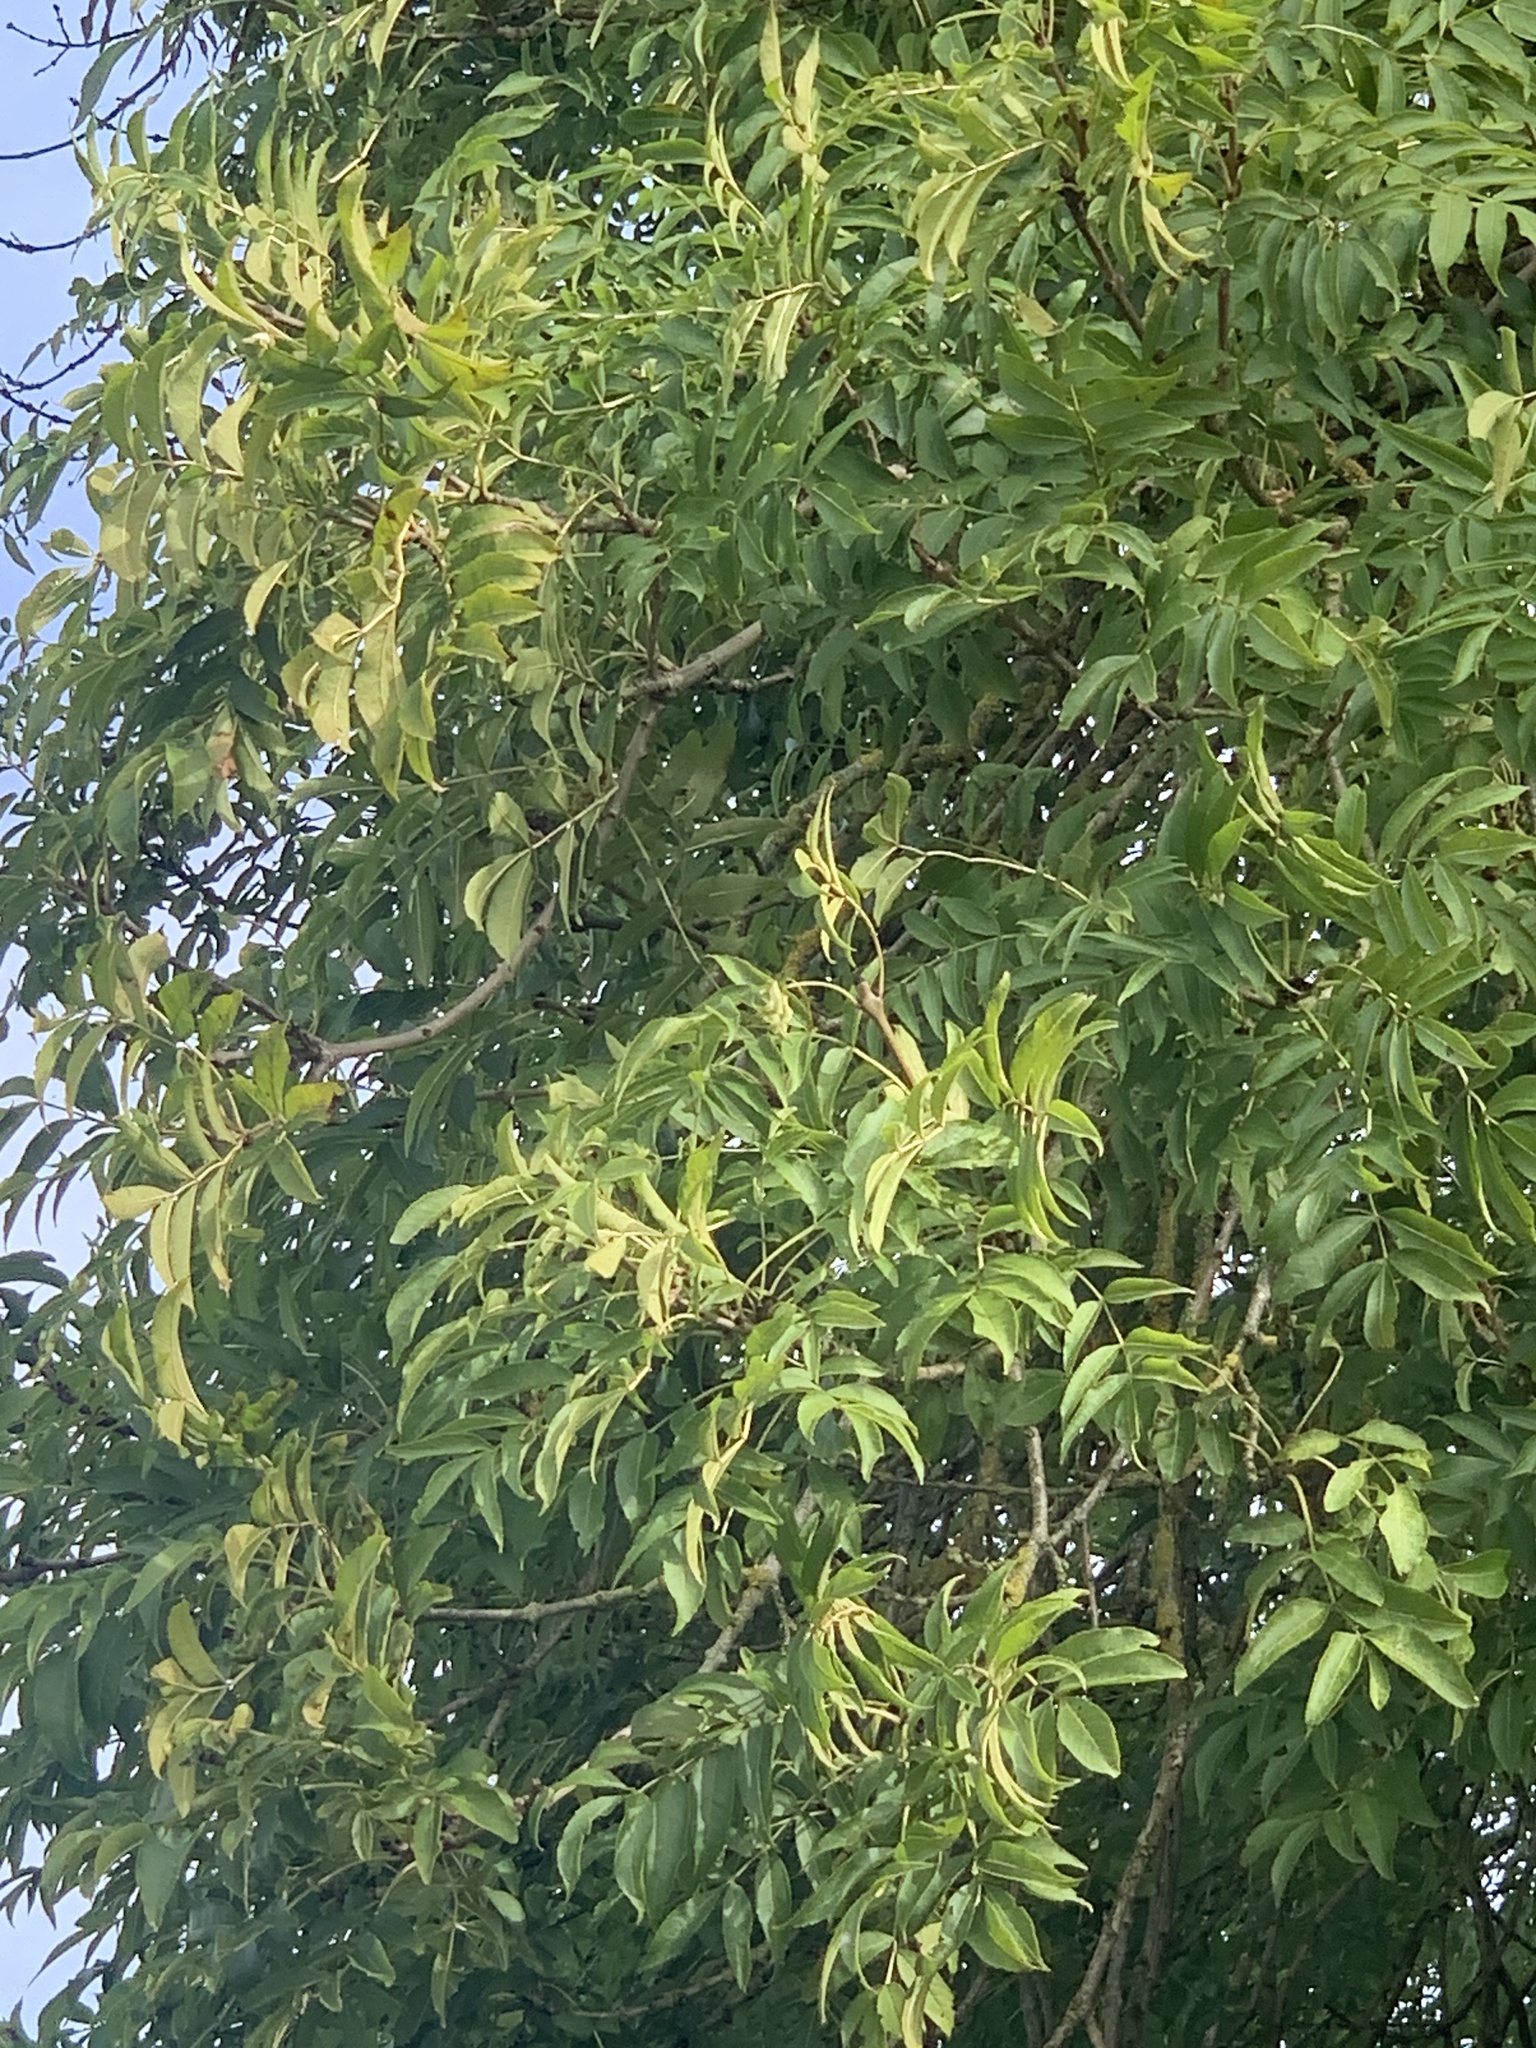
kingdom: Plantae
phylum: Tracheophyta
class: Magnoliopsida
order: Lamiales
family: Oleaceae
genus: Fraxinus
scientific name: Fraxinus excelsior
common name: European ash
